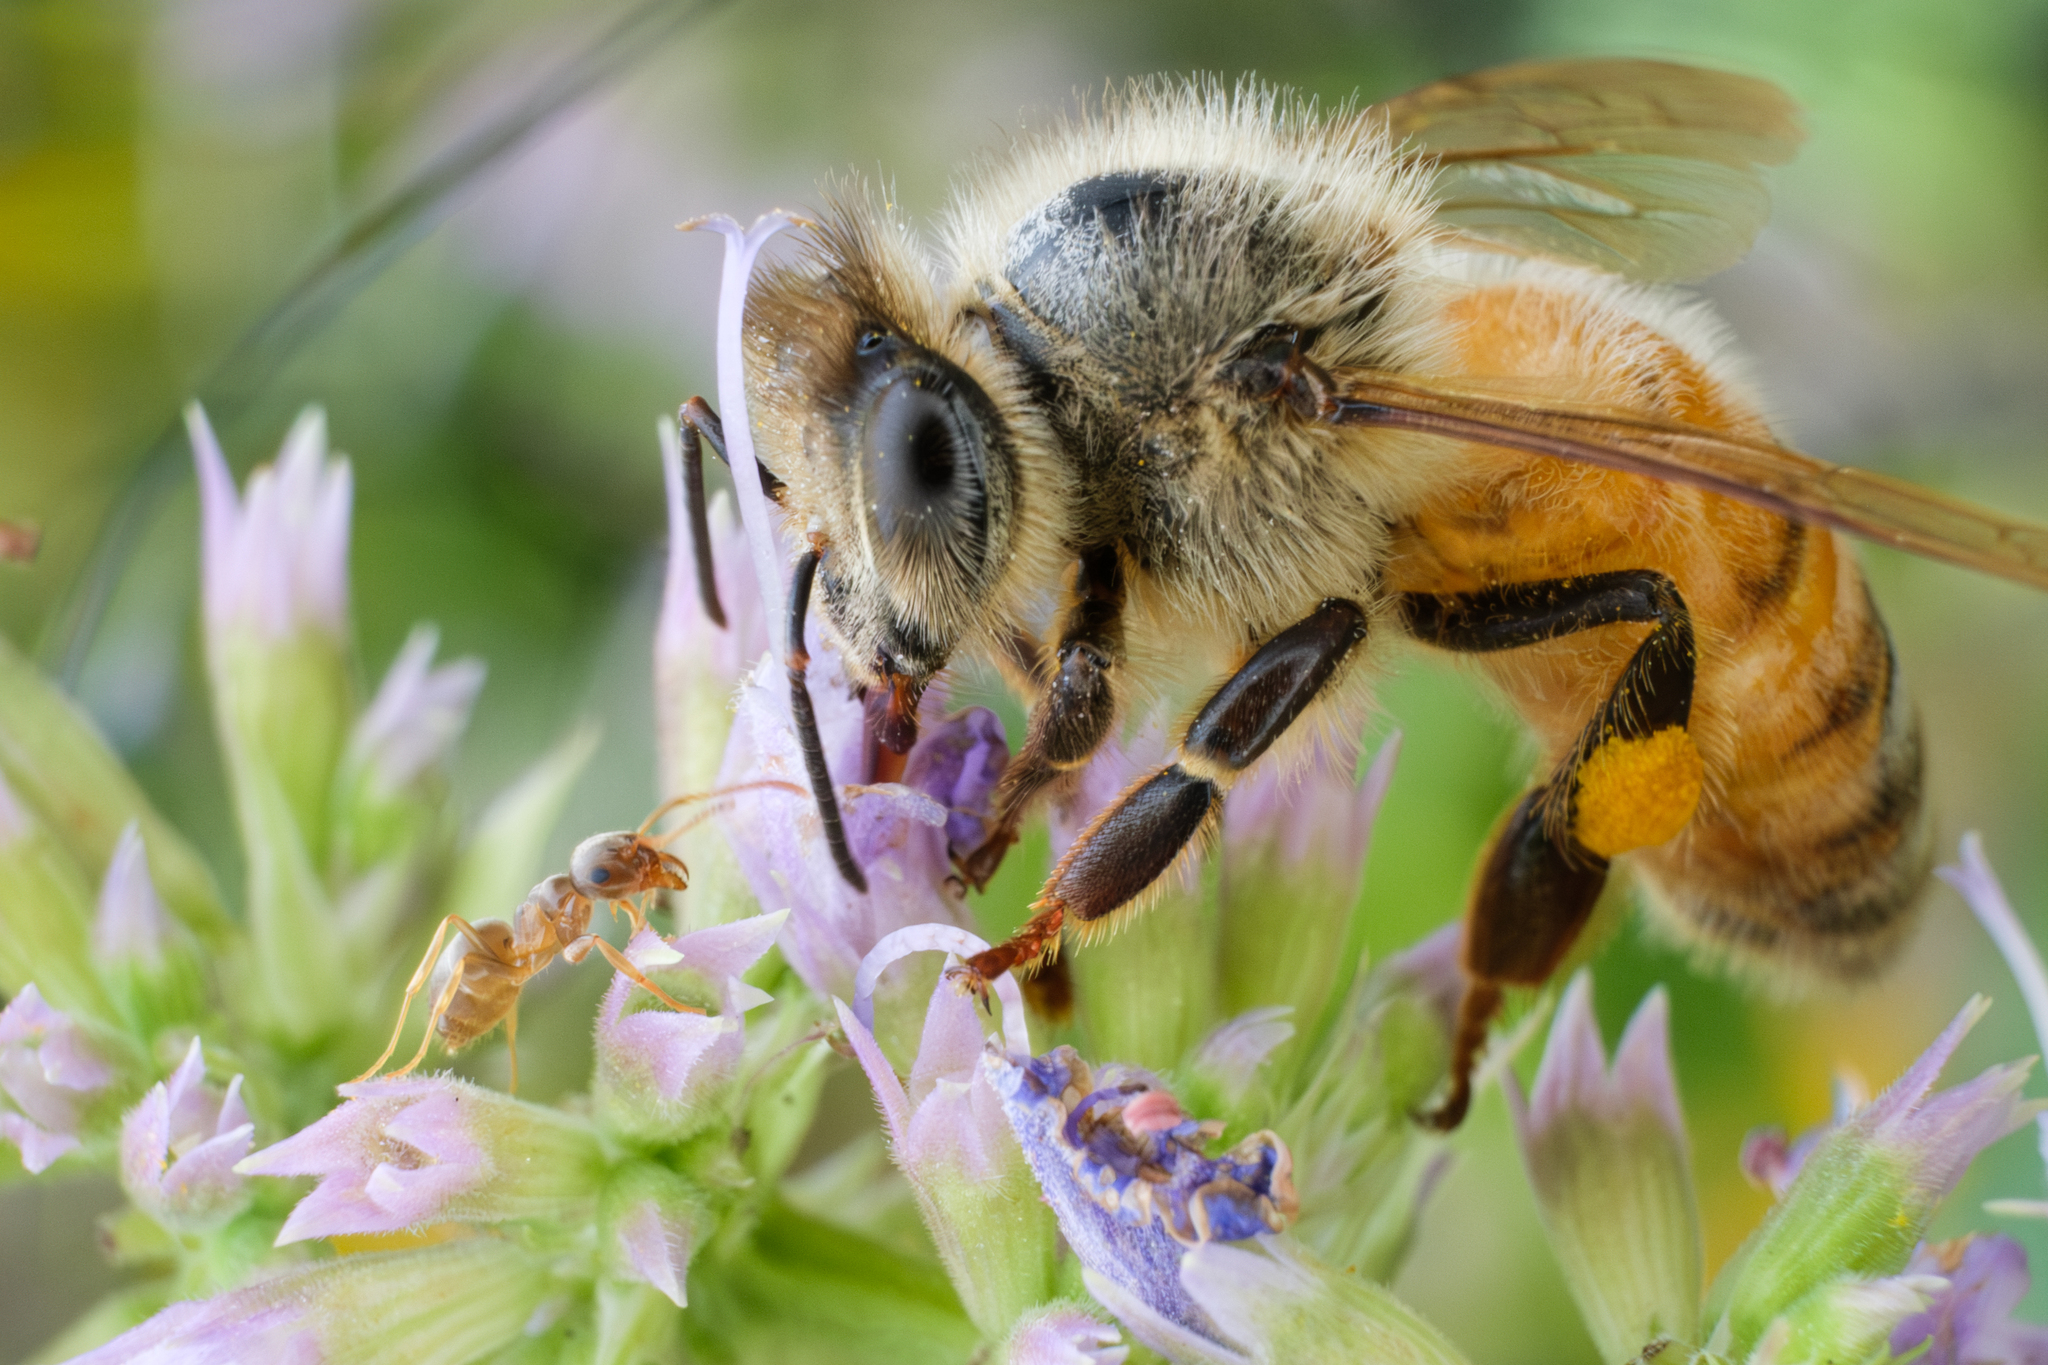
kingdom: Animalia
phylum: Arthropoda
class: Insecta
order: Hymenoptera
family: Formicidae
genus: Lasius
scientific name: Lasius neoniger
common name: Turfgrass ant
